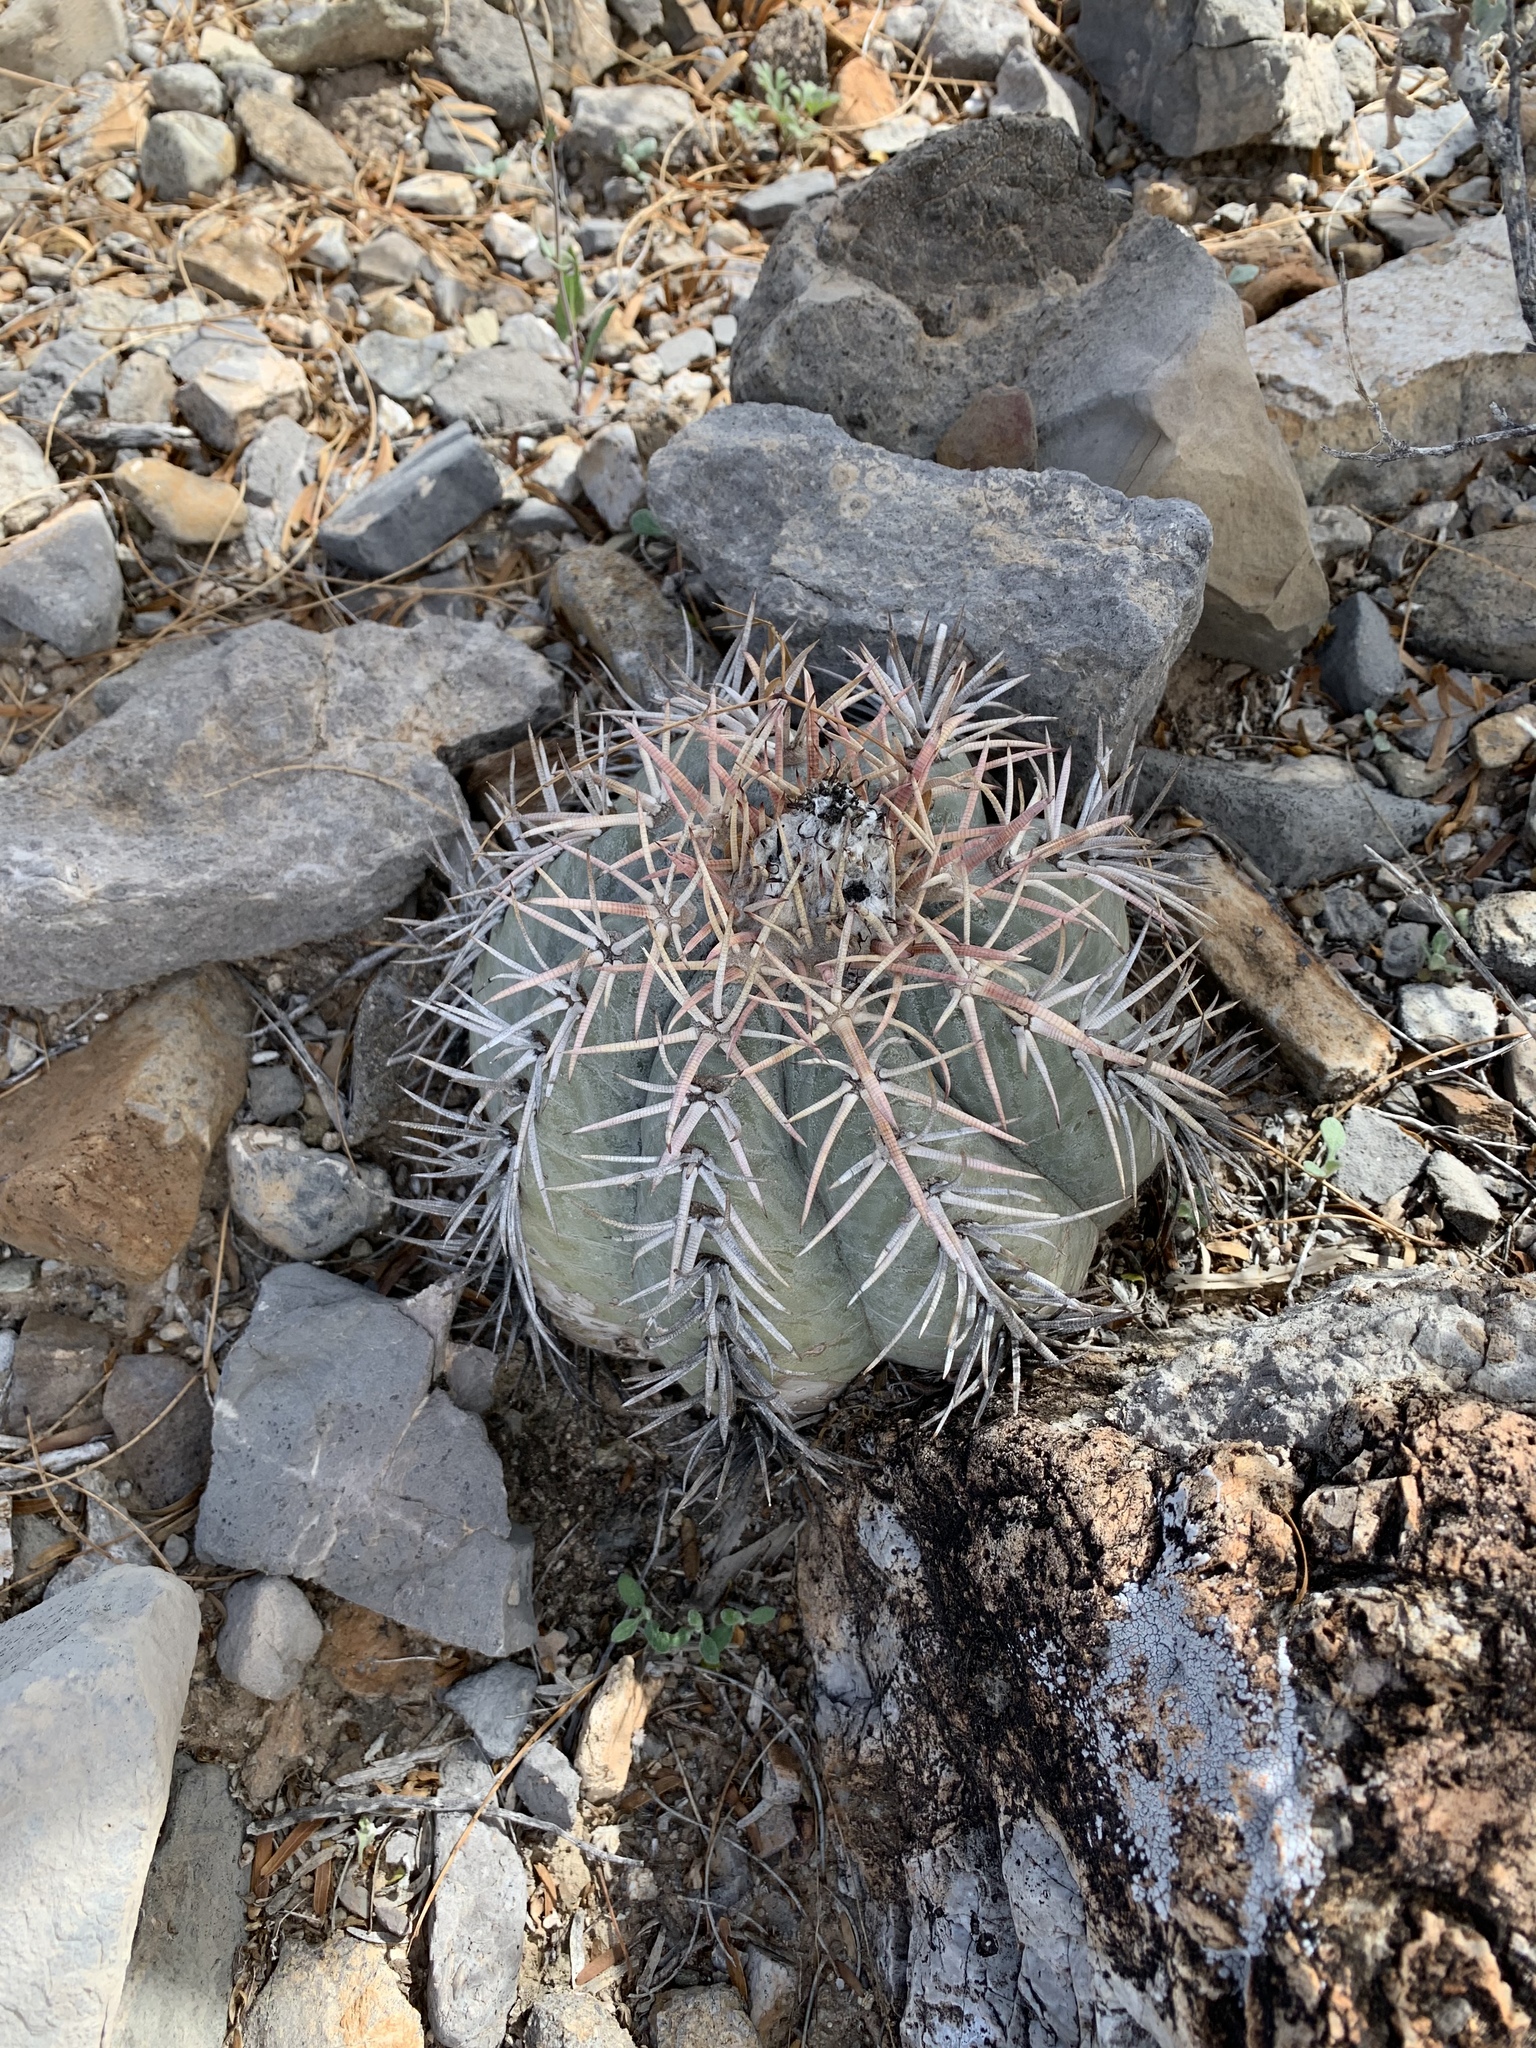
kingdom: Plantae
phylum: Tracheophyta
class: Magnoliopsida
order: Caryophyllales
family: Cactaceae
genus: Echinocactus
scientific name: Echinocactus horizonthalonius
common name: Devilshead
